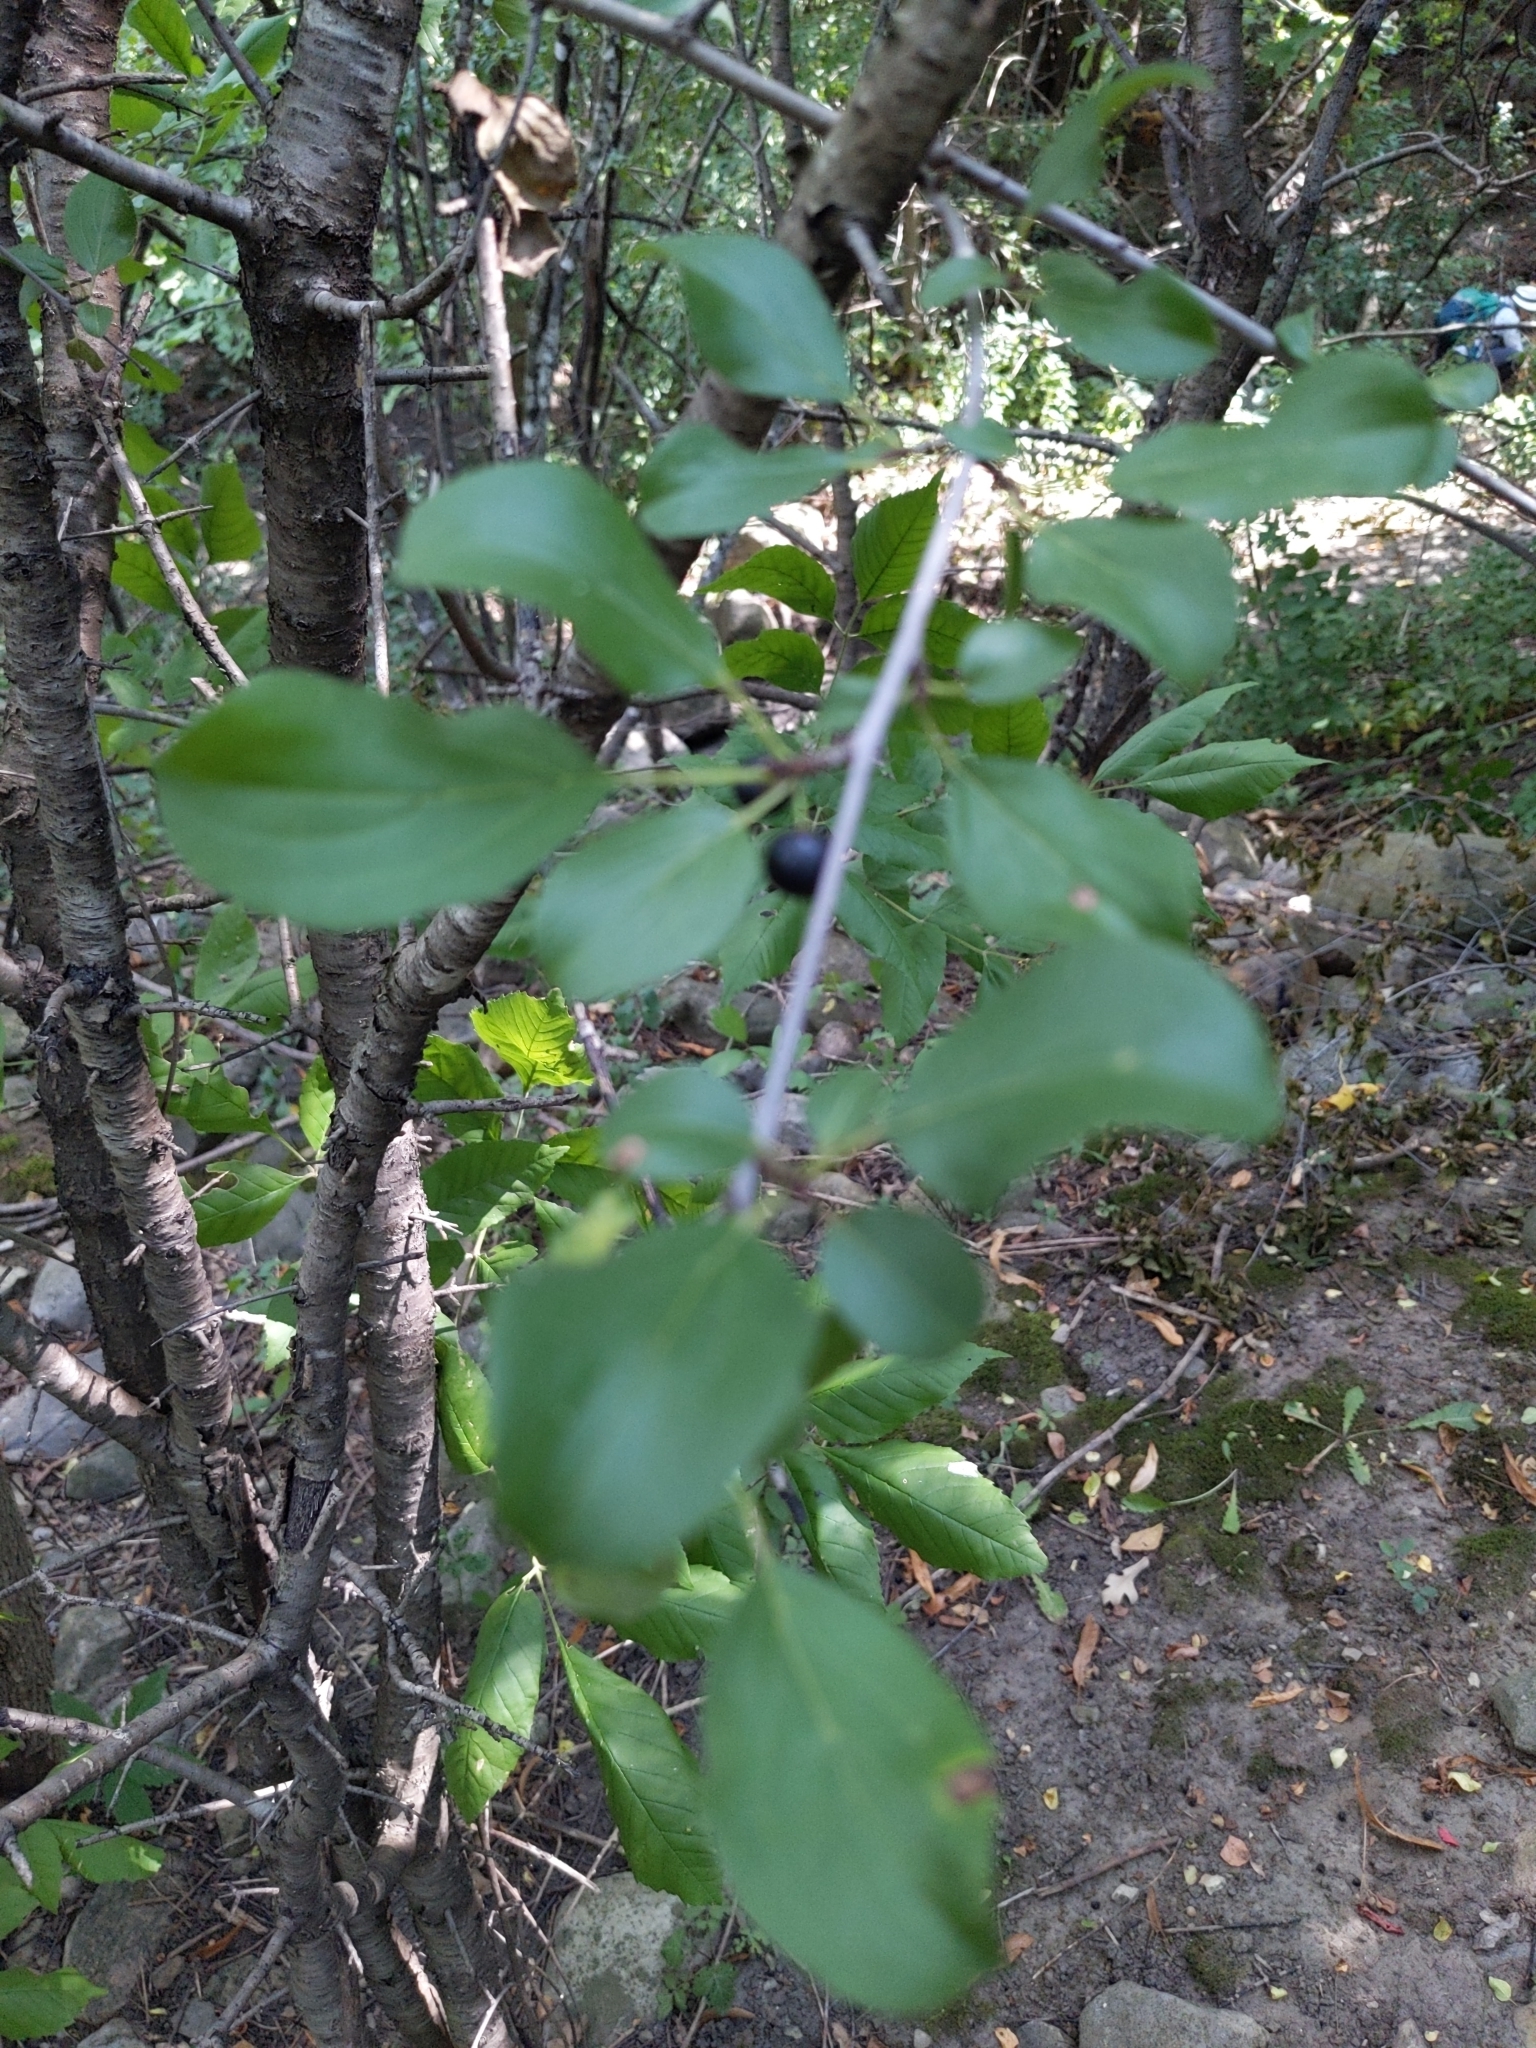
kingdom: Plantae
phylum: Tracheophyta
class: Magnoliopsida
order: Rosales
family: Rhamnaceae
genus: Rhamnus
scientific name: Rhamnus cathartica
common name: Common buckthorn
